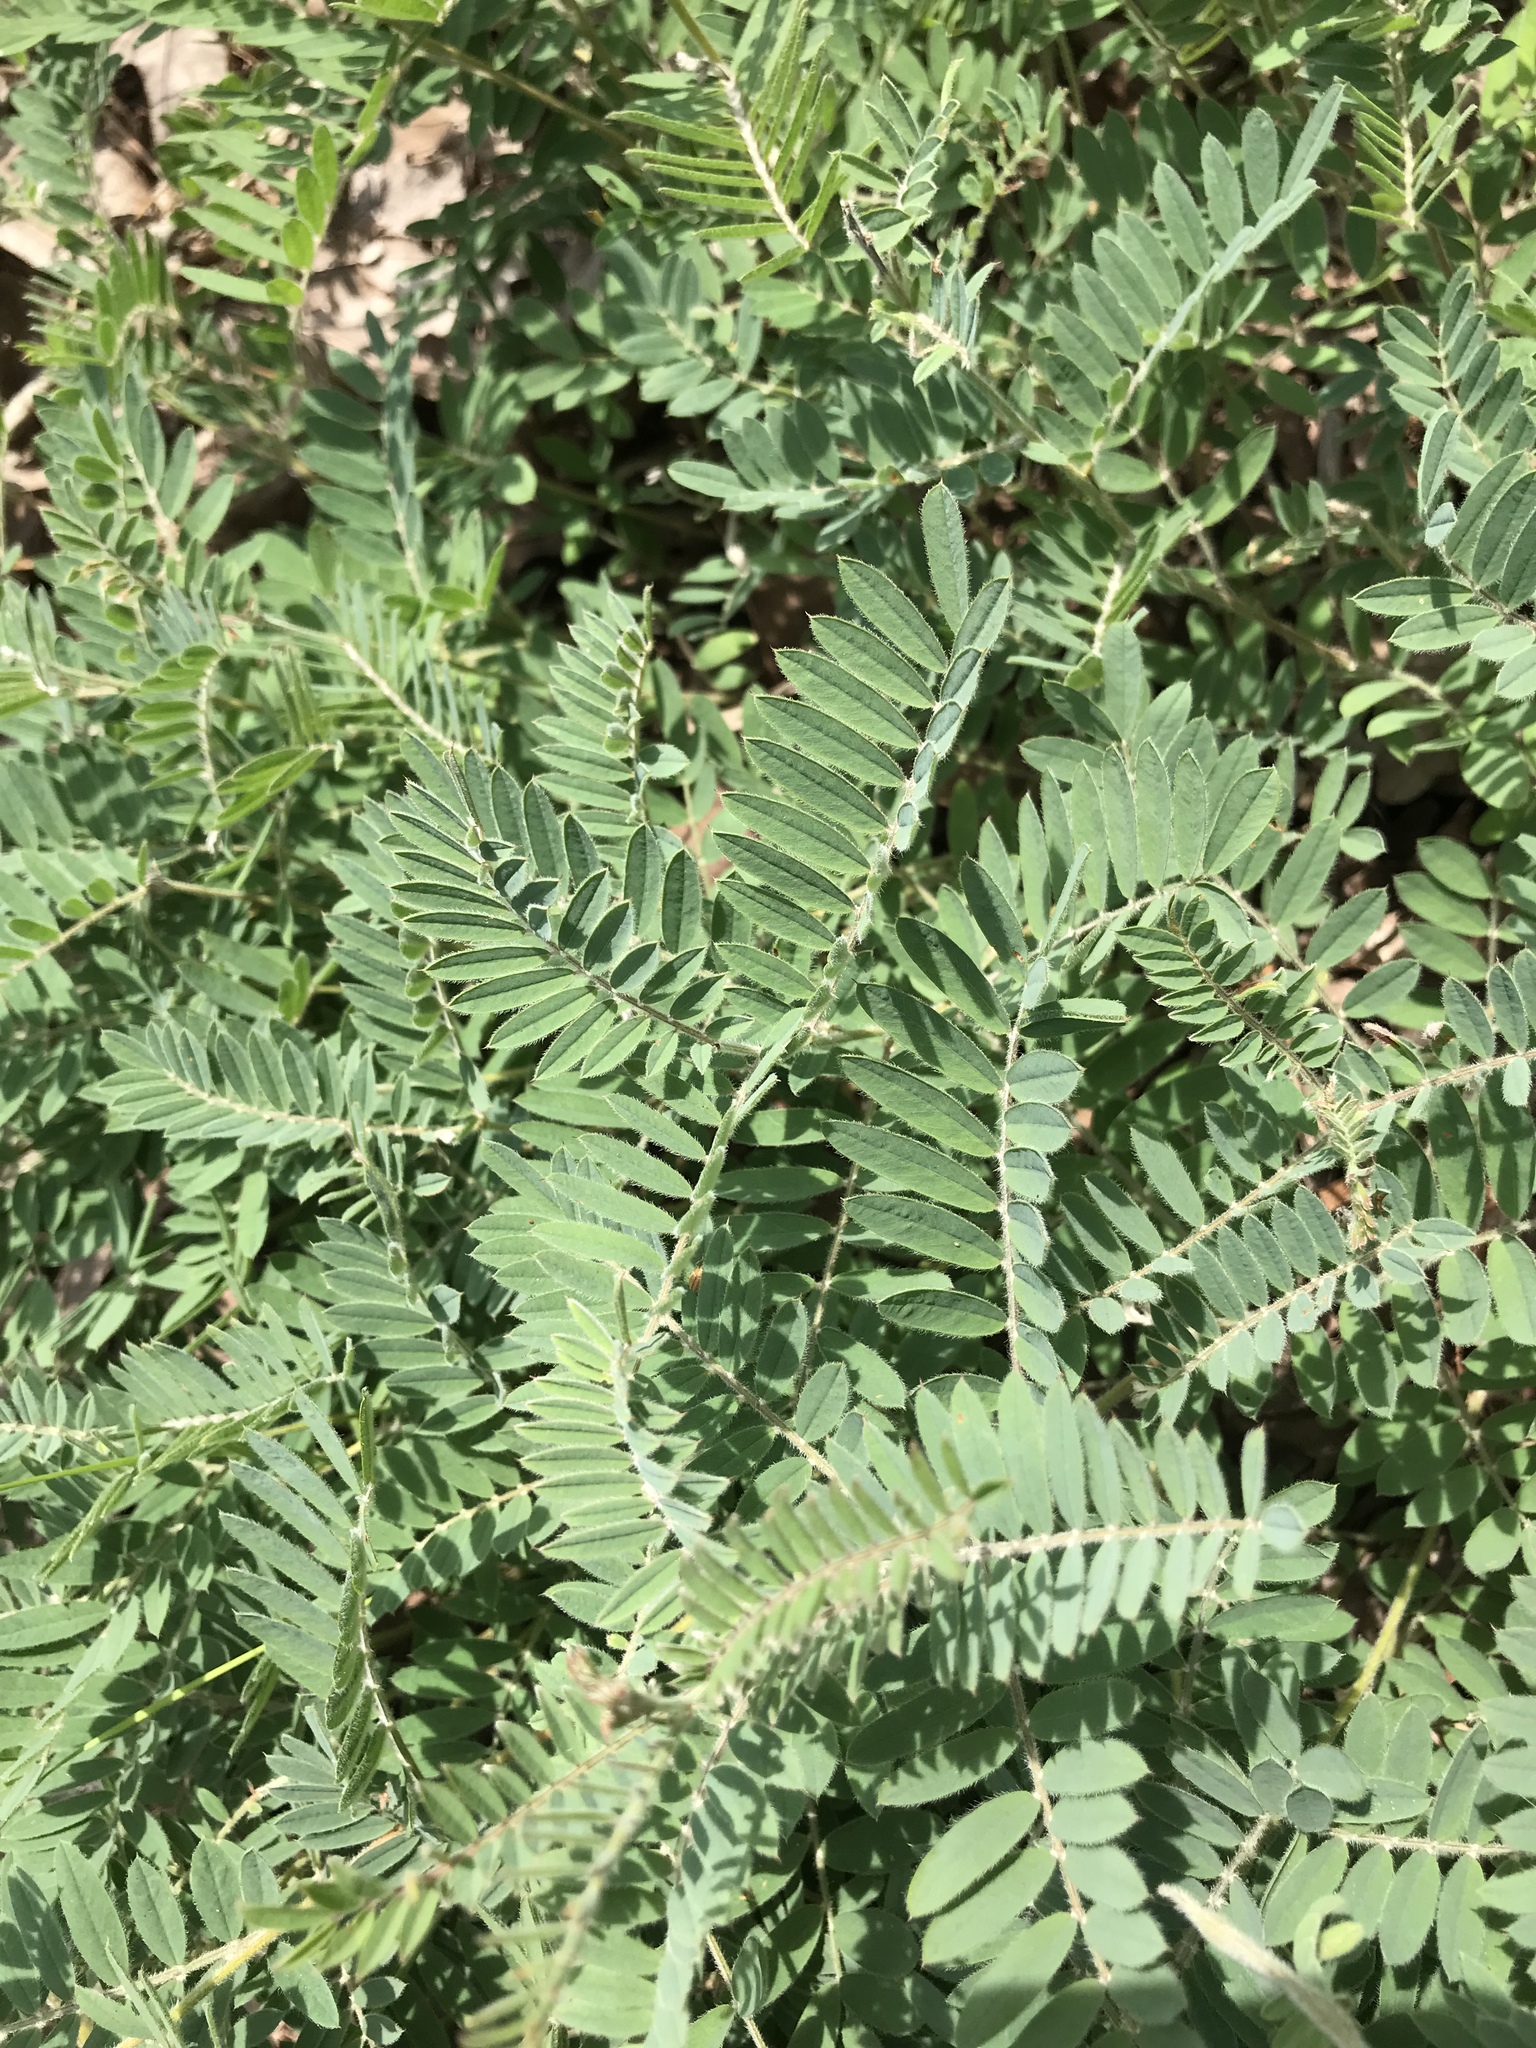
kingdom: Plantae
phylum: Tracheophyta
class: Magnoliopsida
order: Fabales
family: Fabaceae
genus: Tephrosia
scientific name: Tephrosia virginiana
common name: Rabbit-pea
